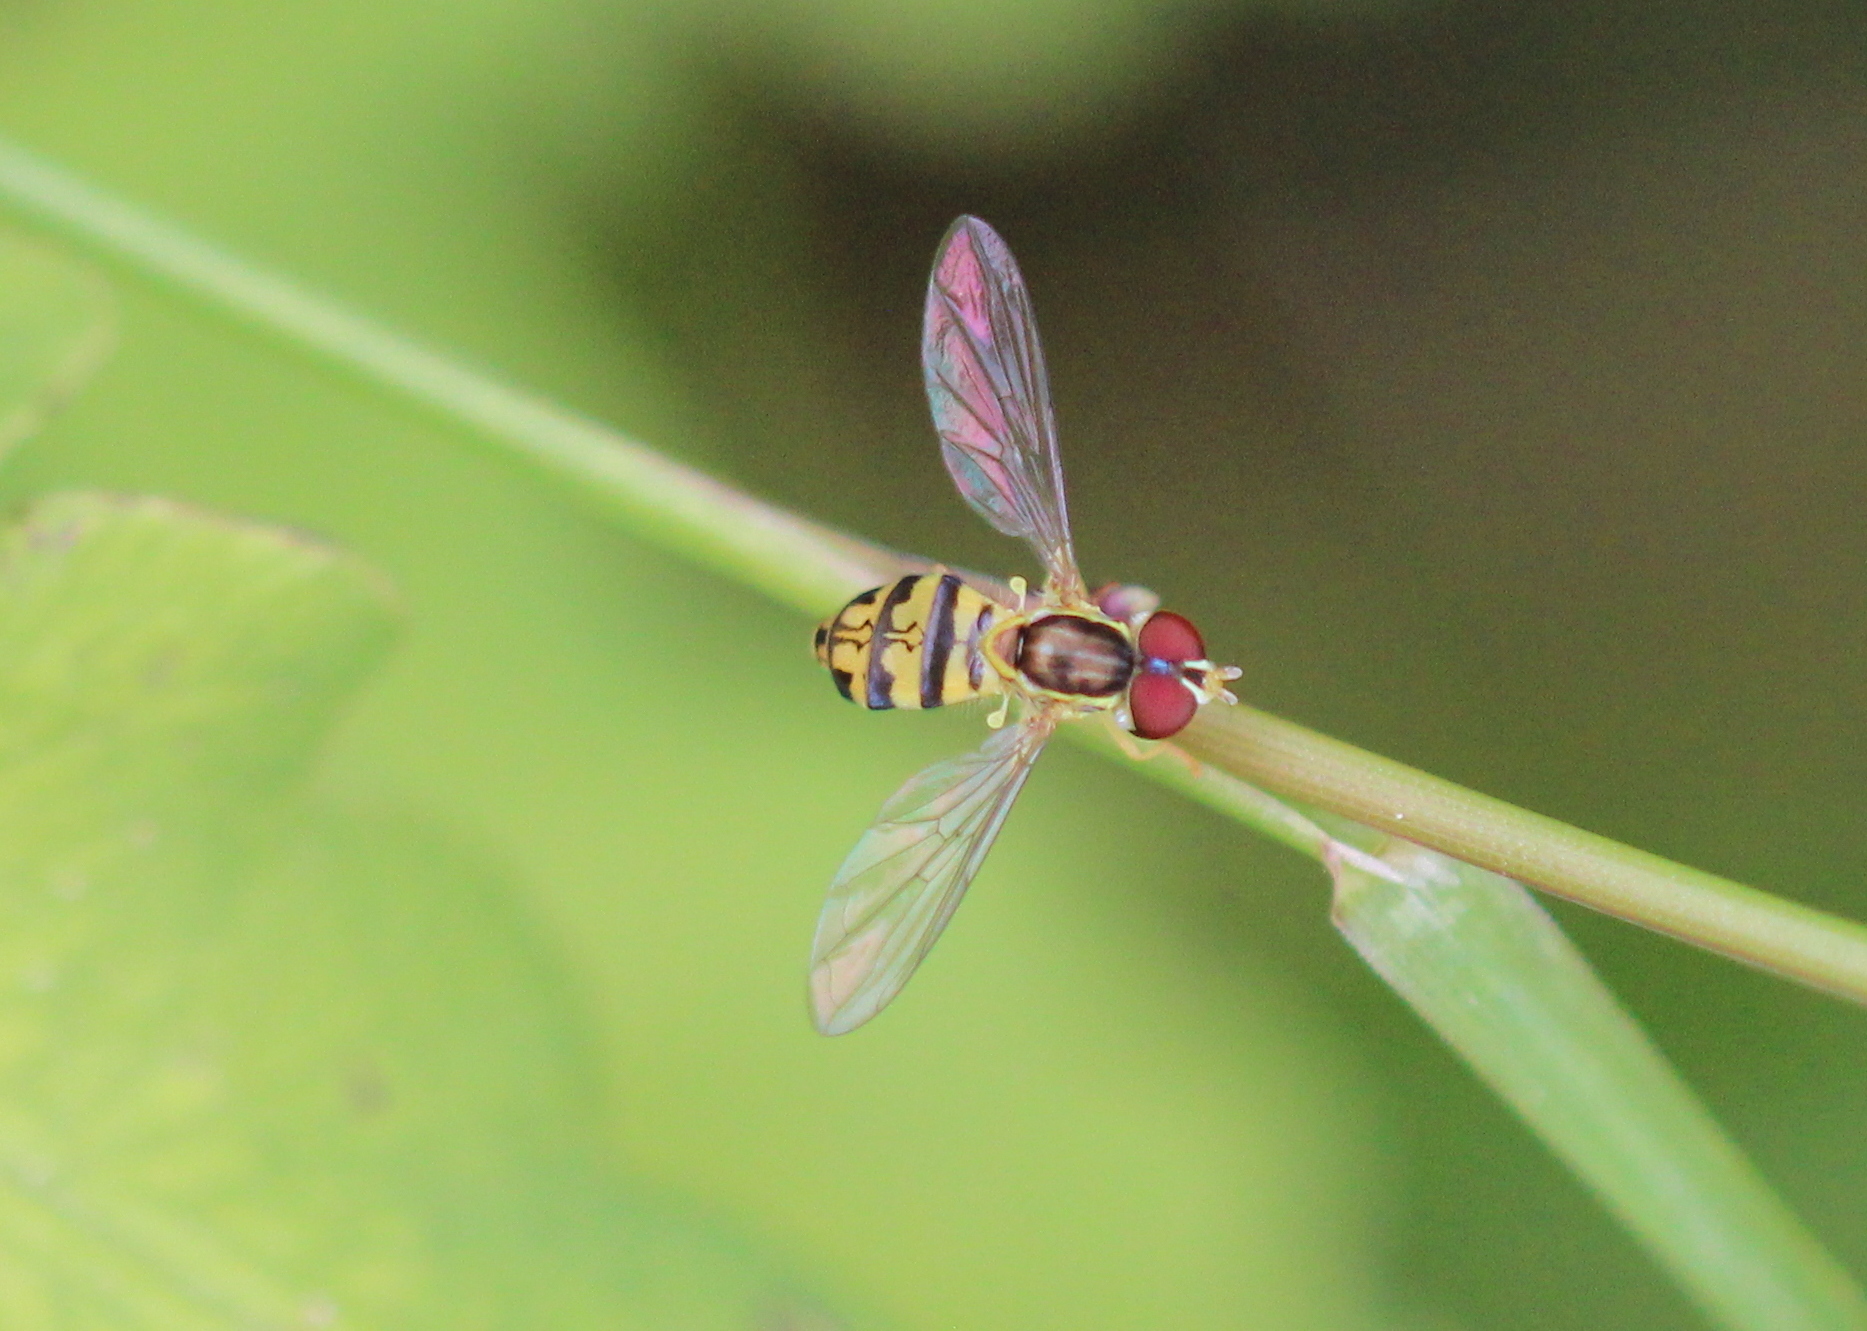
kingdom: Animalia
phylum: Arthropoda
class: Insecta
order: Diptera
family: Syrphidae
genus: Toxomerus
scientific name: Toxomerus geminatus
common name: Eastern calligrapher
